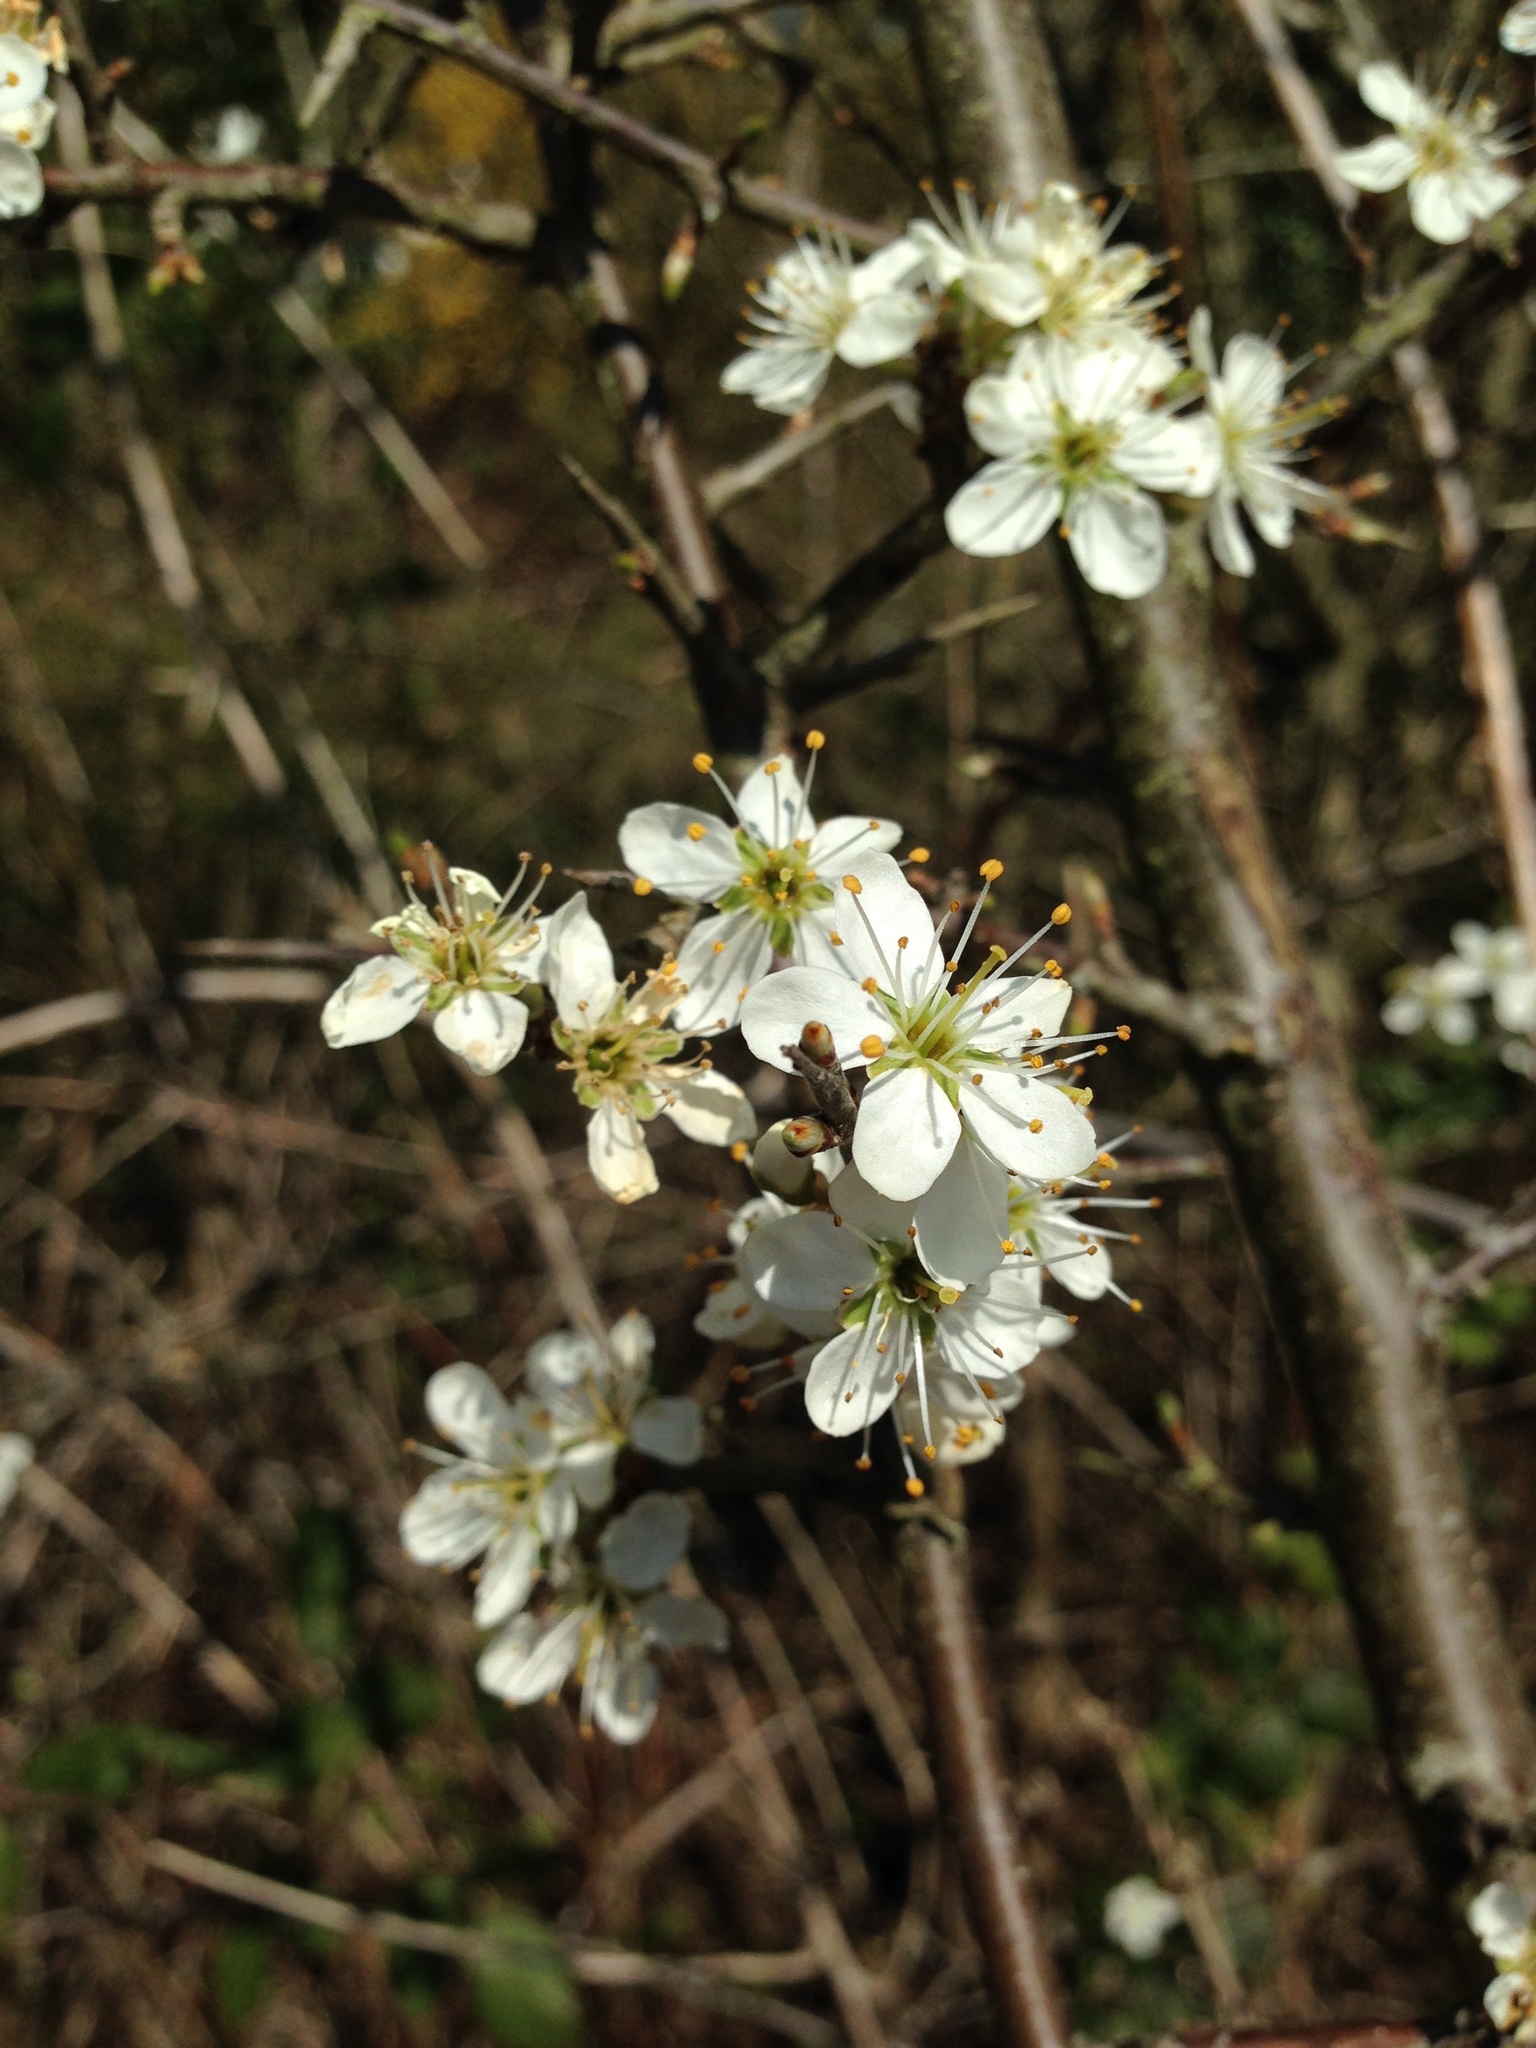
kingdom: Plantae
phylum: Tracheophyta
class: Magnoliopsida
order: Rosales
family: Rosaceae
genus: Prunus
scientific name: Prunus spinosa
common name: Blackthorn
